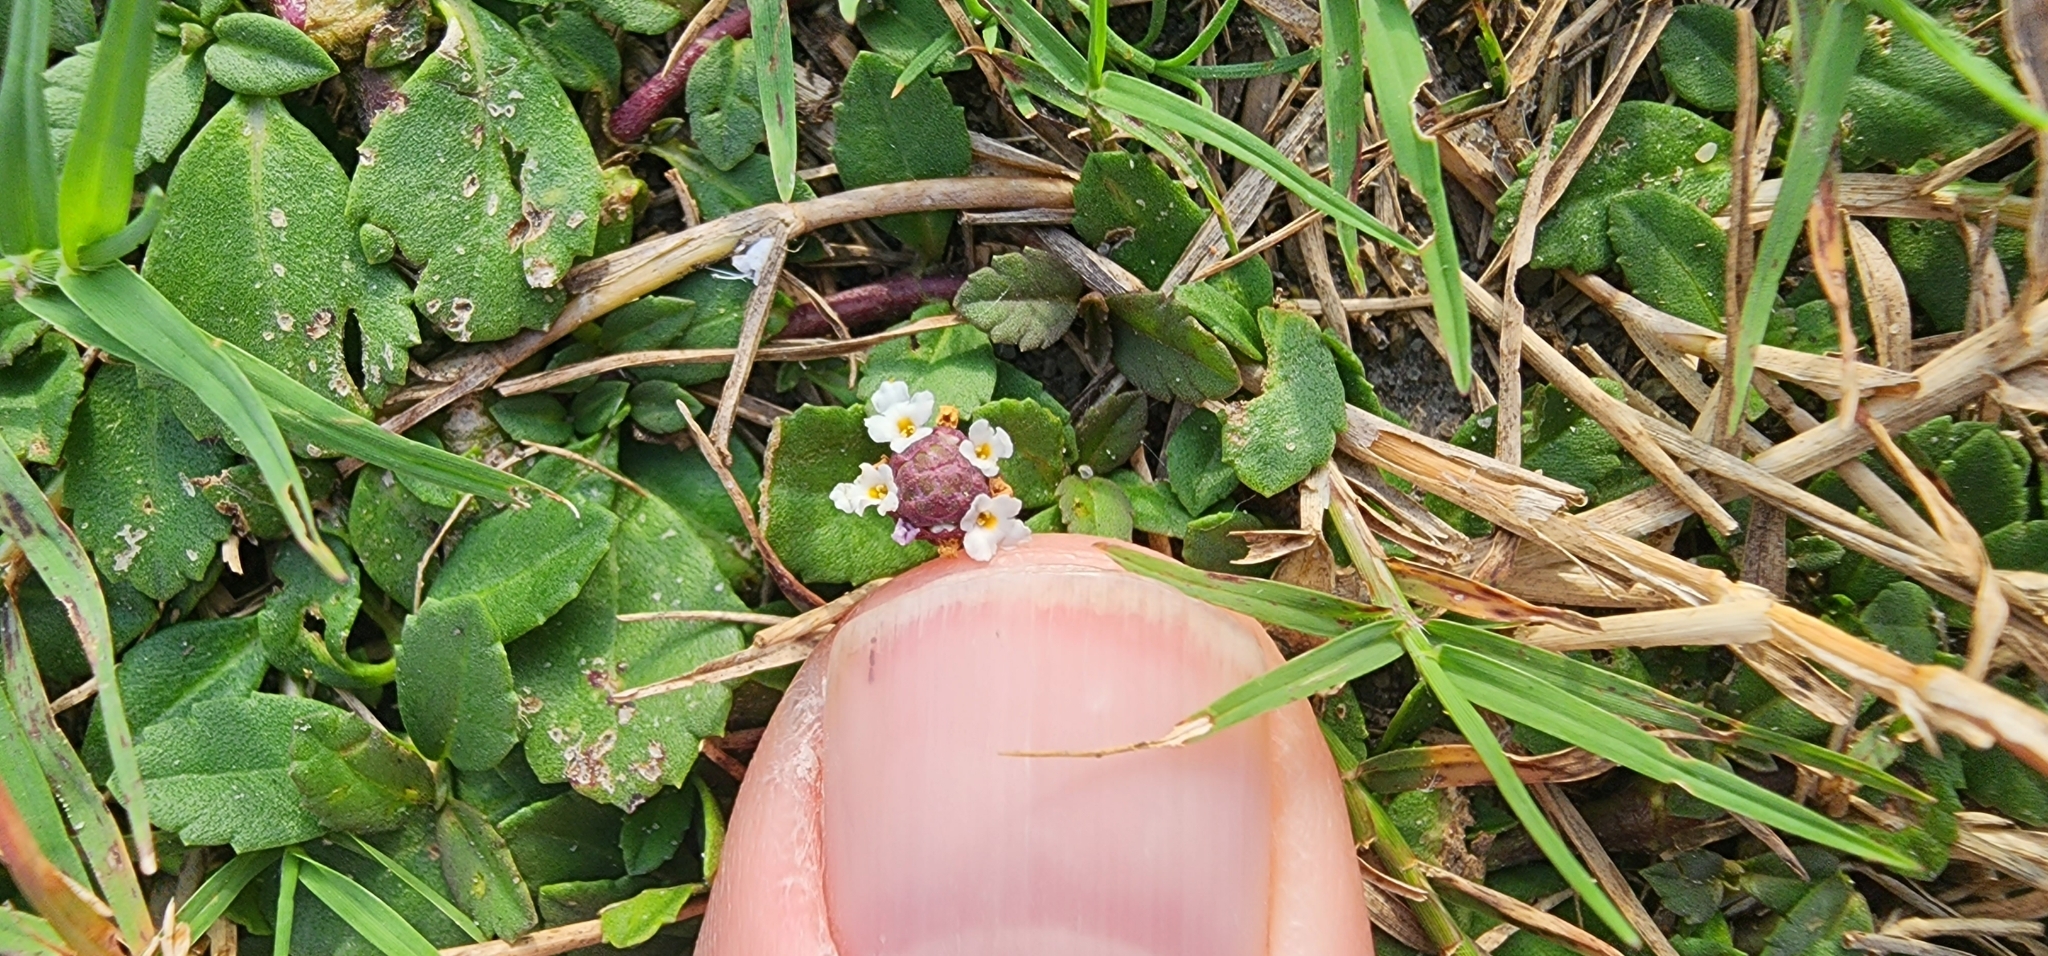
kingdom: Plantae
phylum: Tracheophyta
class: Magnoliopsida
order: Lamiales
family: Verbenaceae
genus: Phyla
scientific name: Phyla nodiflora
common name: Frogfruit
